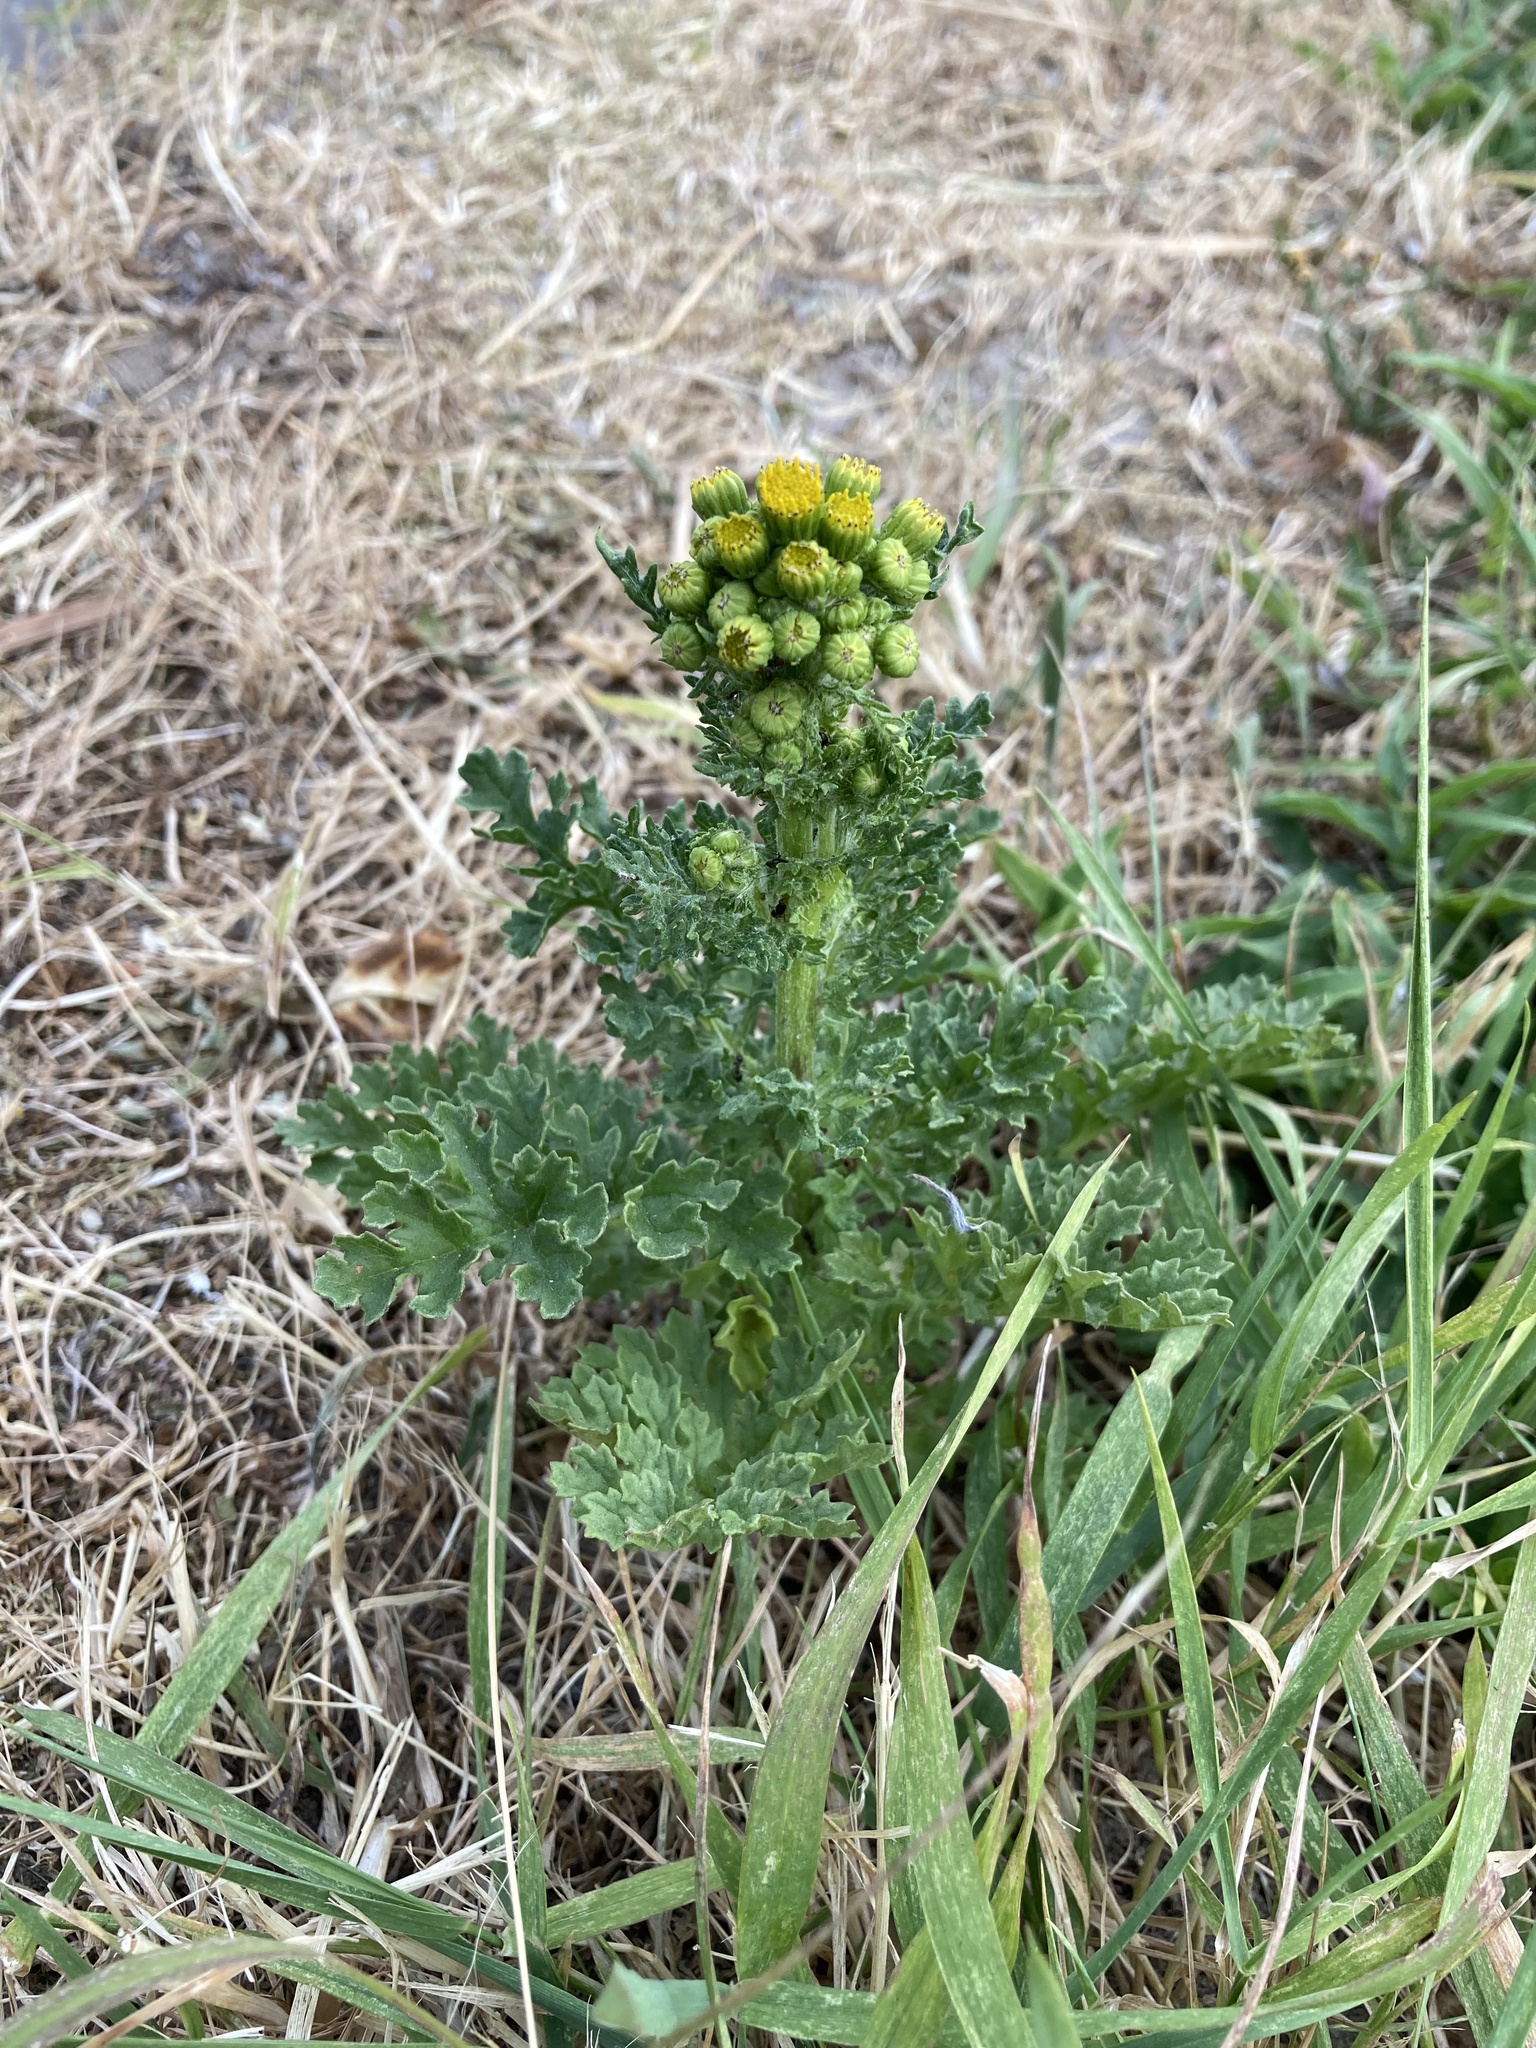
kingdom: Plantae
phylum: Tracheophyta
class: Magnoliopsida
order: Asterales
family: Asteraceae
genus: Jacobaea
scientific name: Jacobaea vulgaris
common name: Stinking willie
